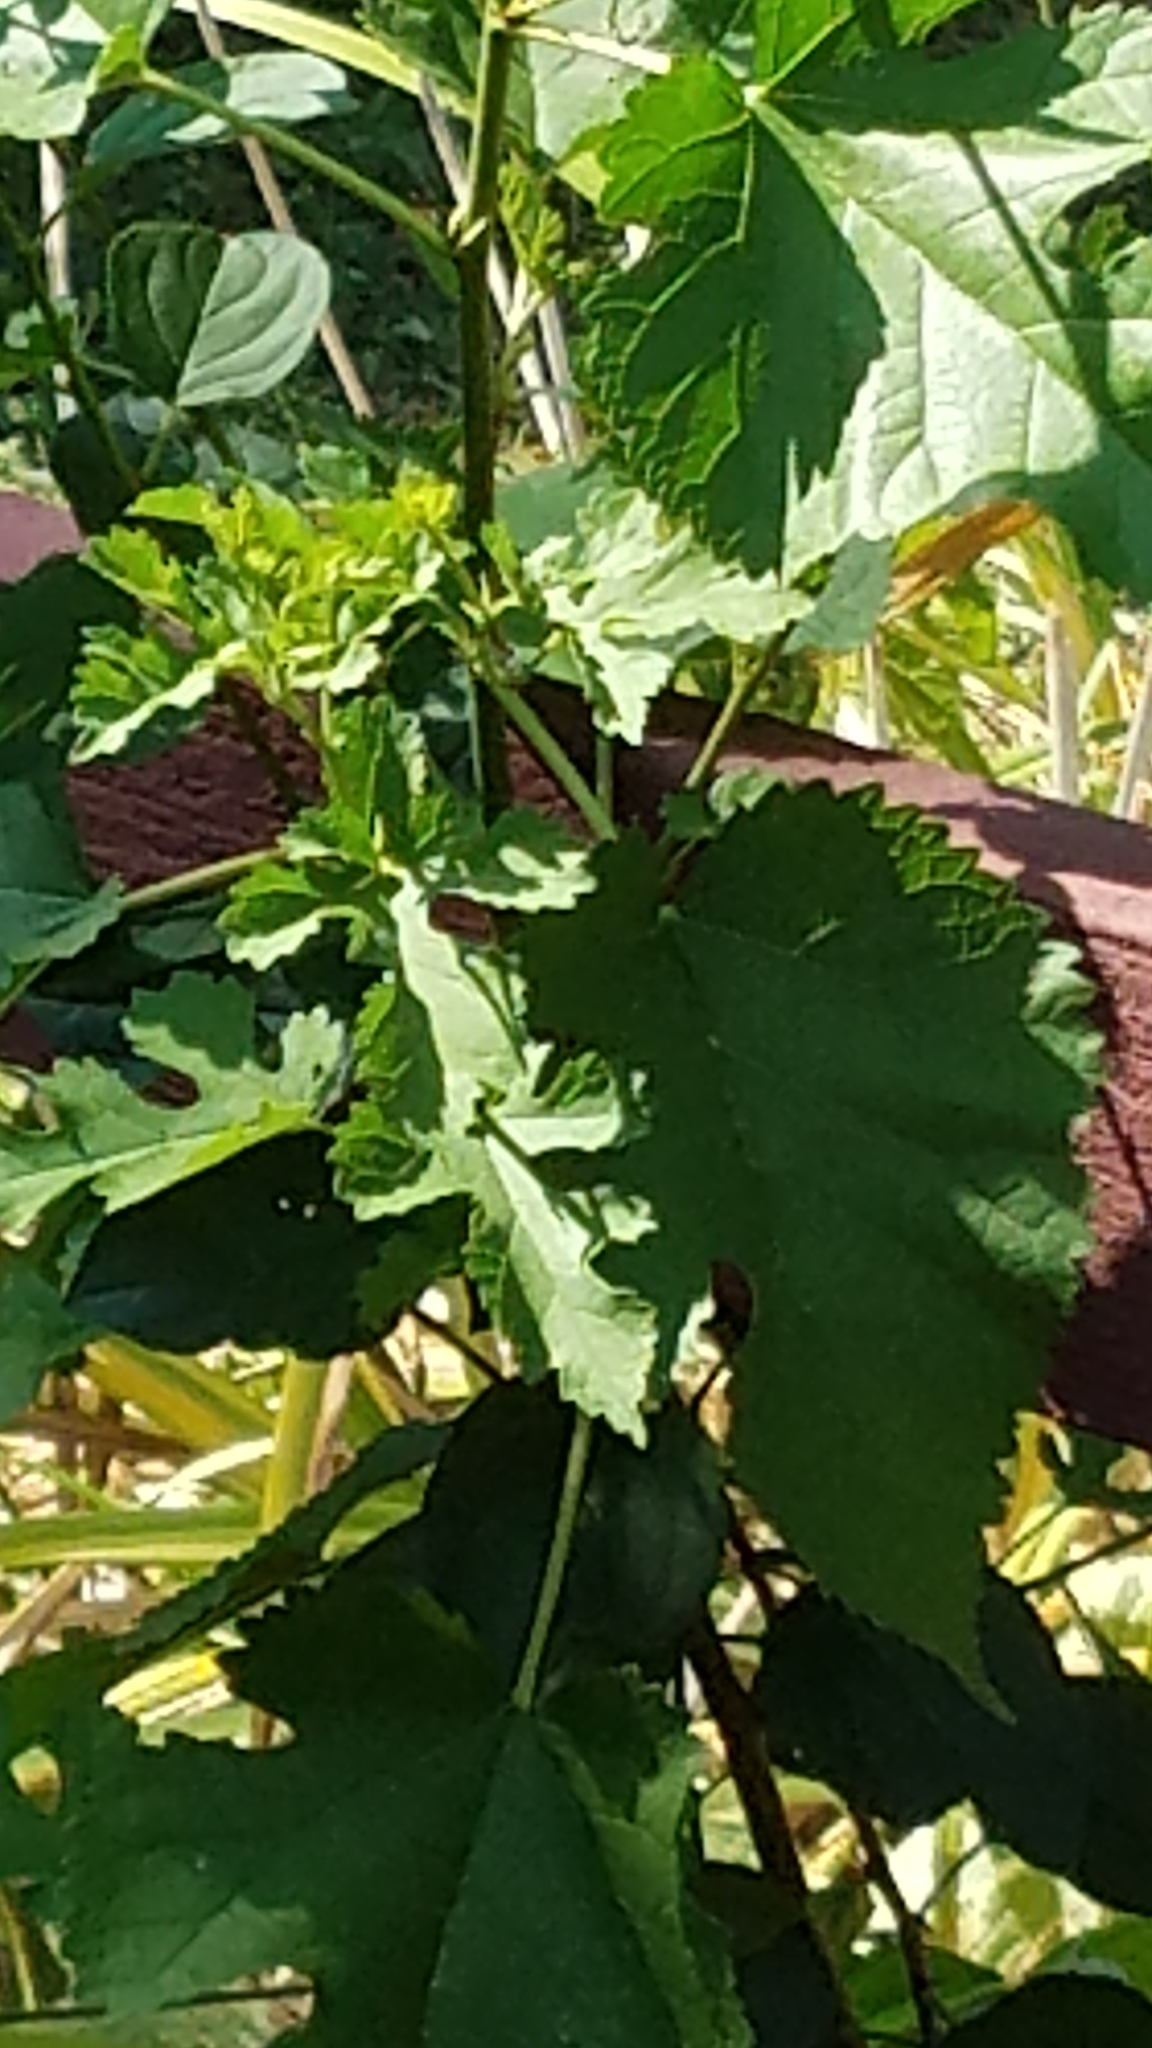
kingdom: Plantae
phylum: Tracheophyta
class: Magnoliopsida
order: Rosales
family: Moraceae
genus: Morus
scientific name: Morus alba
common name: White mulberry
